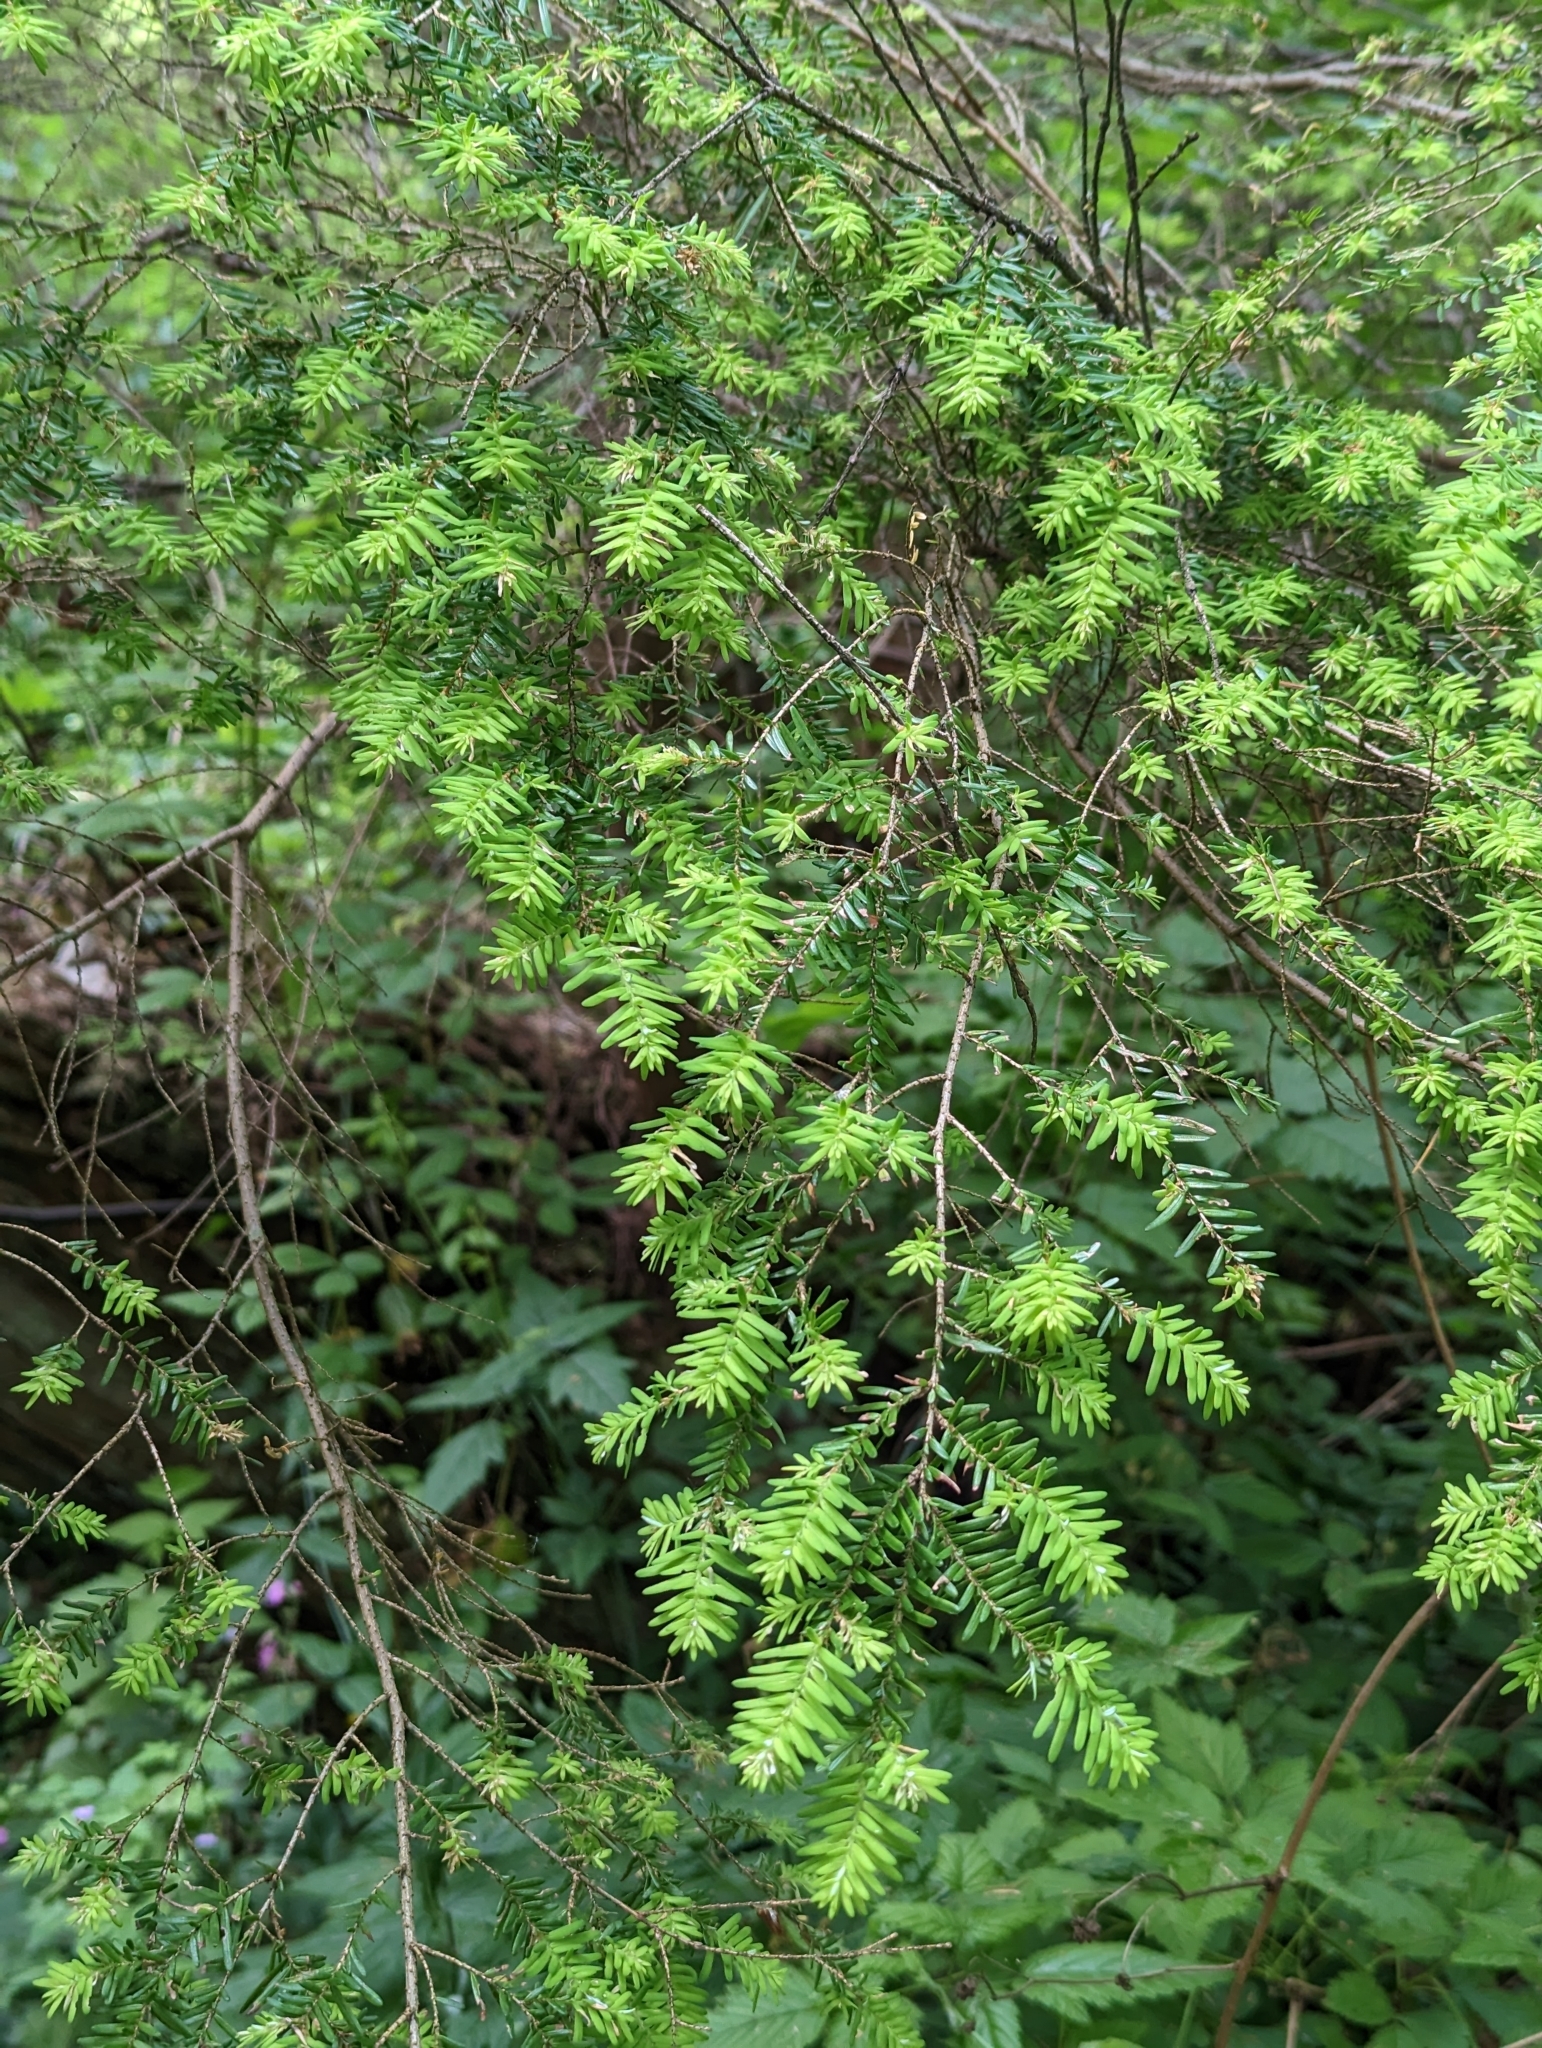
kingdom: Plantae
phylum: Tracheophyta
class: Pinopsida
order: Pinales
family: Pinaceae
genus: Tsuga
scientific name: Tsuga heterophylla
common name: Western hemlock
